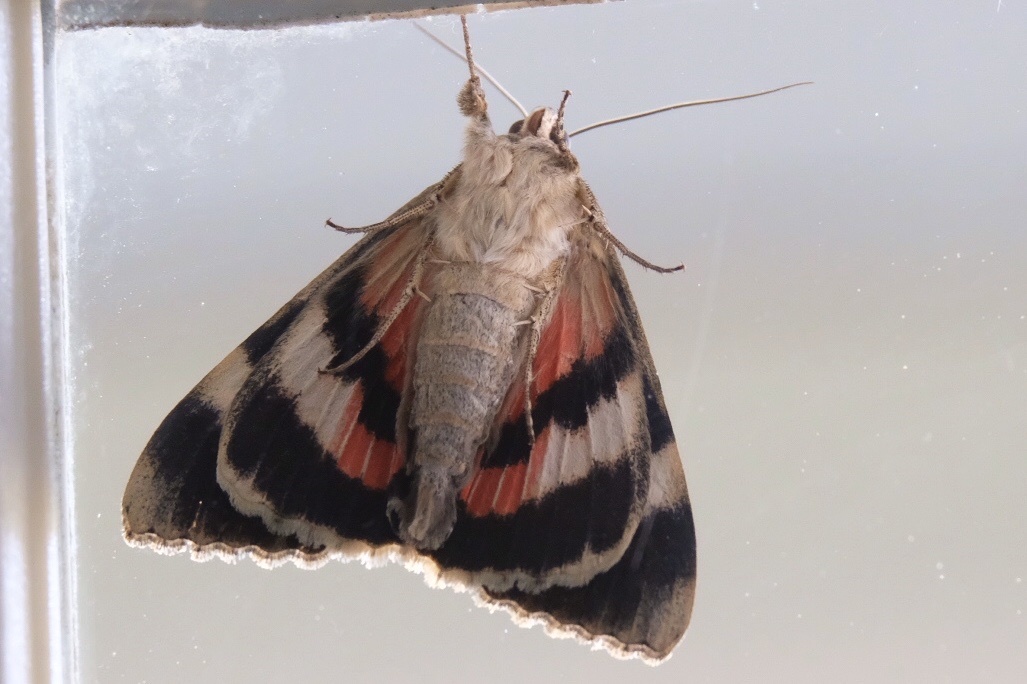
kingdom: Animalia
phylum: Arthropoda
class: Insecta
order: Lepidoptera
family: Erebidae
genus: Catocala
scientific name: Catocala junctura
